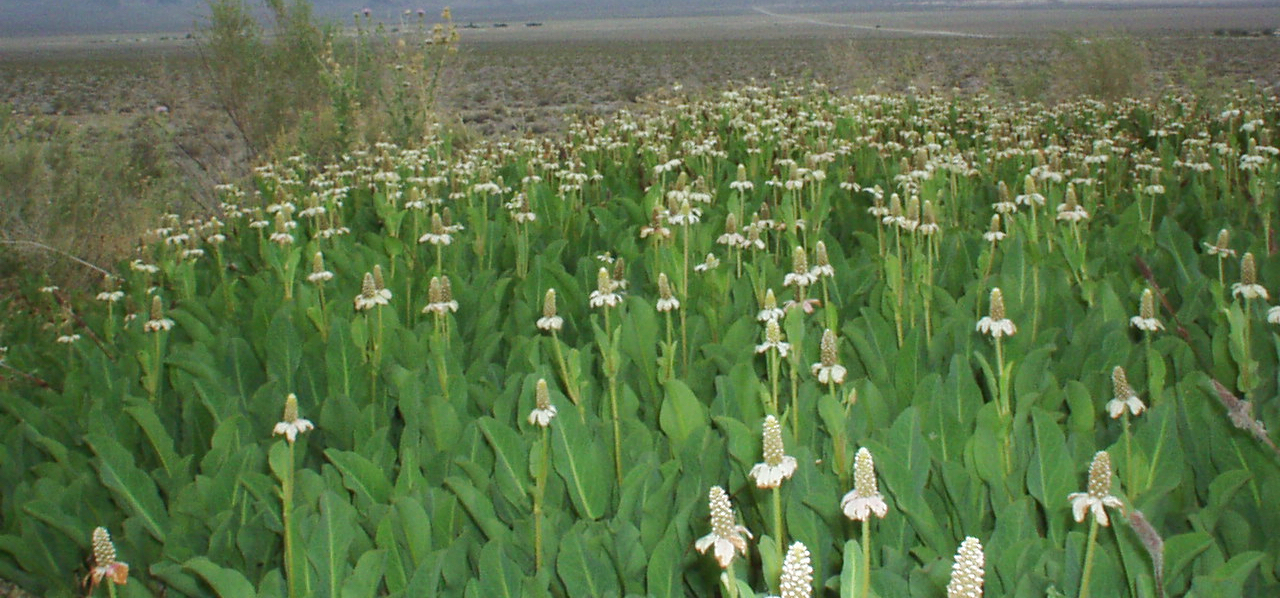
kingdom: Plantae
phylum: Tracheophyta
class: Magnoliopsida
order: Piperales
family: Saururaceae
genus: Anemopsis
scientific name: Anemopsis californica
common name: Apache-beads
